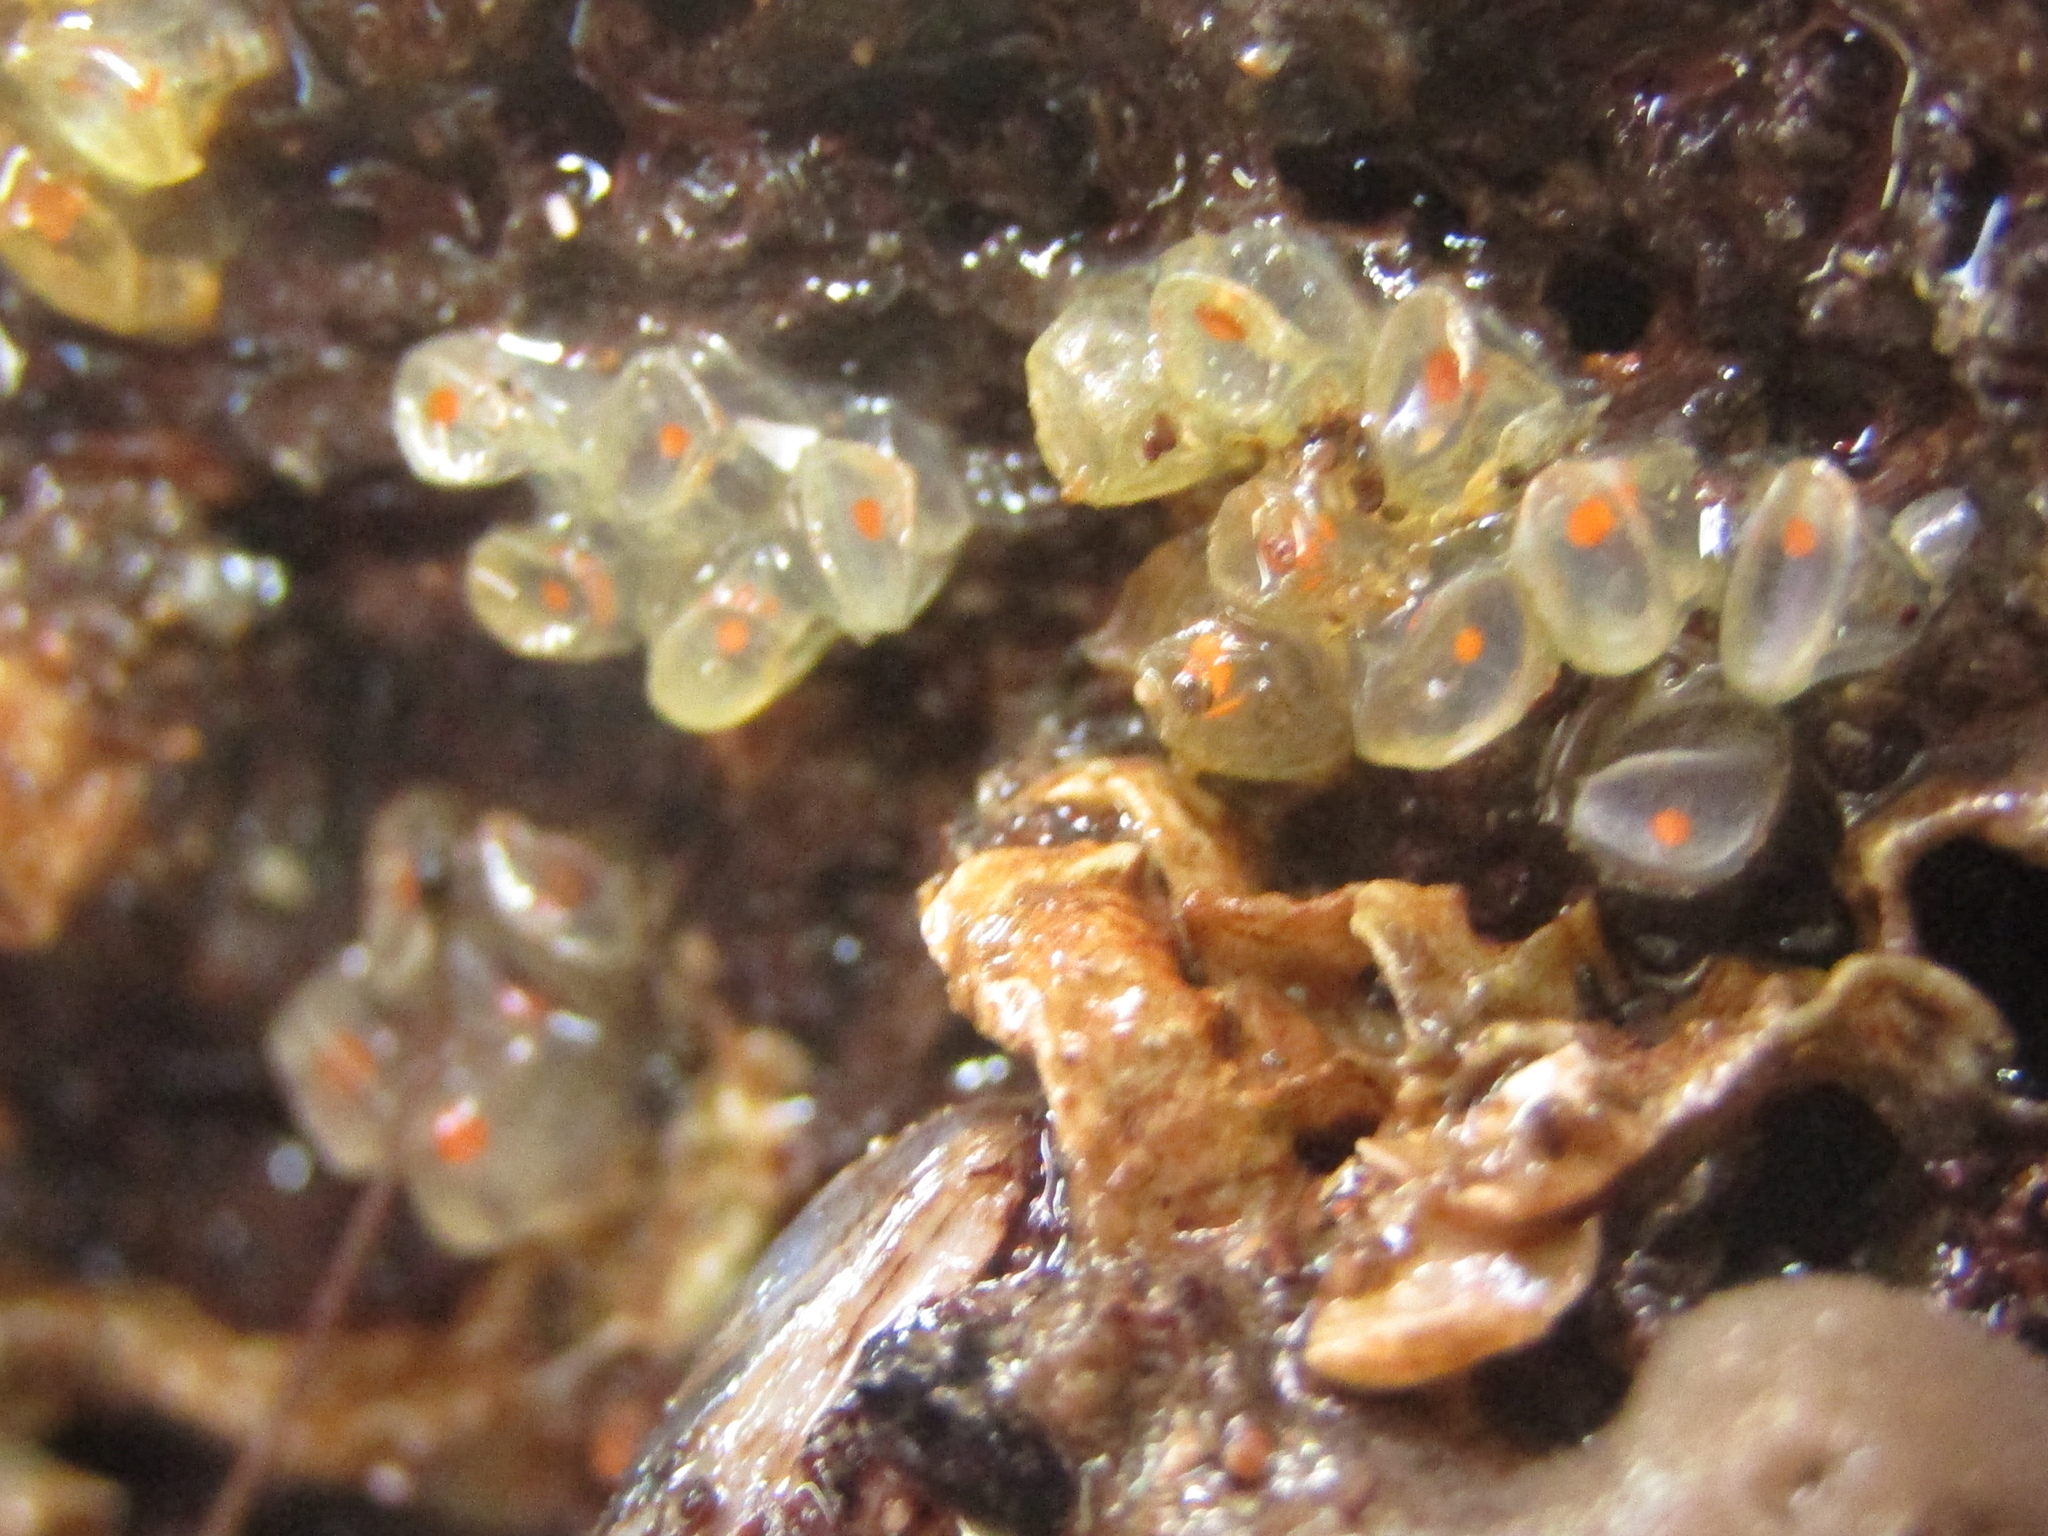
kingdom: Animalia
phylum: Mollusca
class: Gastropoda
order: Neogastropoda
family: Fasciolariidae
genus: Taron
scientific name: Taron dubius
